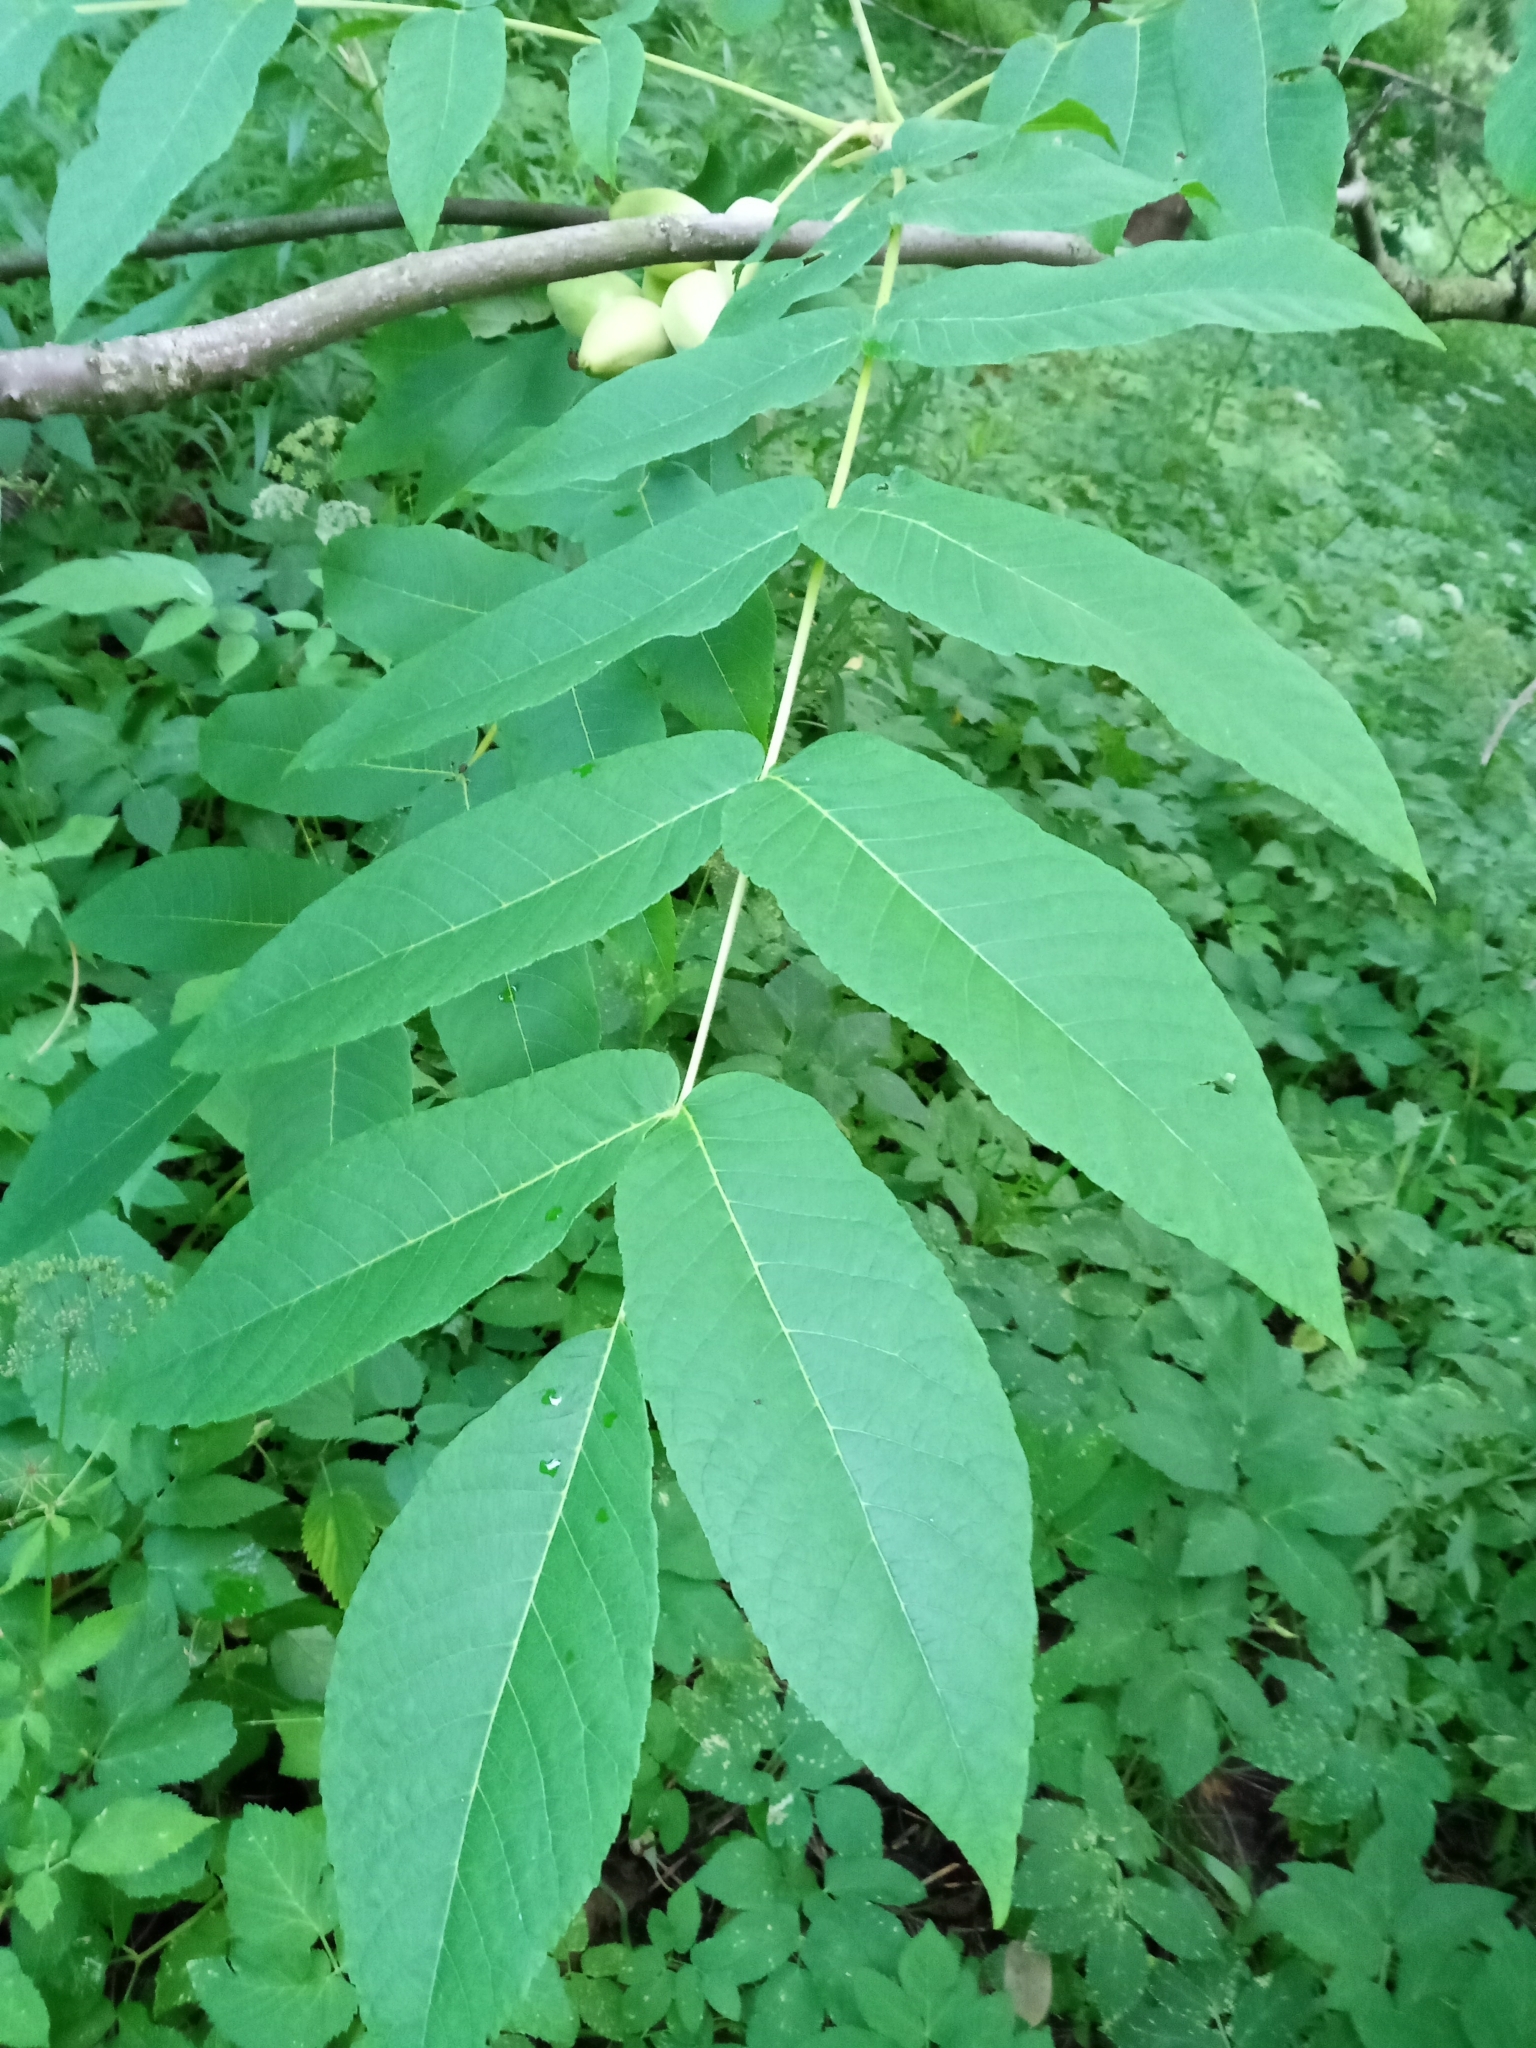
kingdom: Plantae
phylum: Tracheophyta
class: Magnoliopsida
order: Fagales
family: Juglandaceae
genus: Juglans
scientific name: Juglans mandshurica
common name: Manchurian walnut
